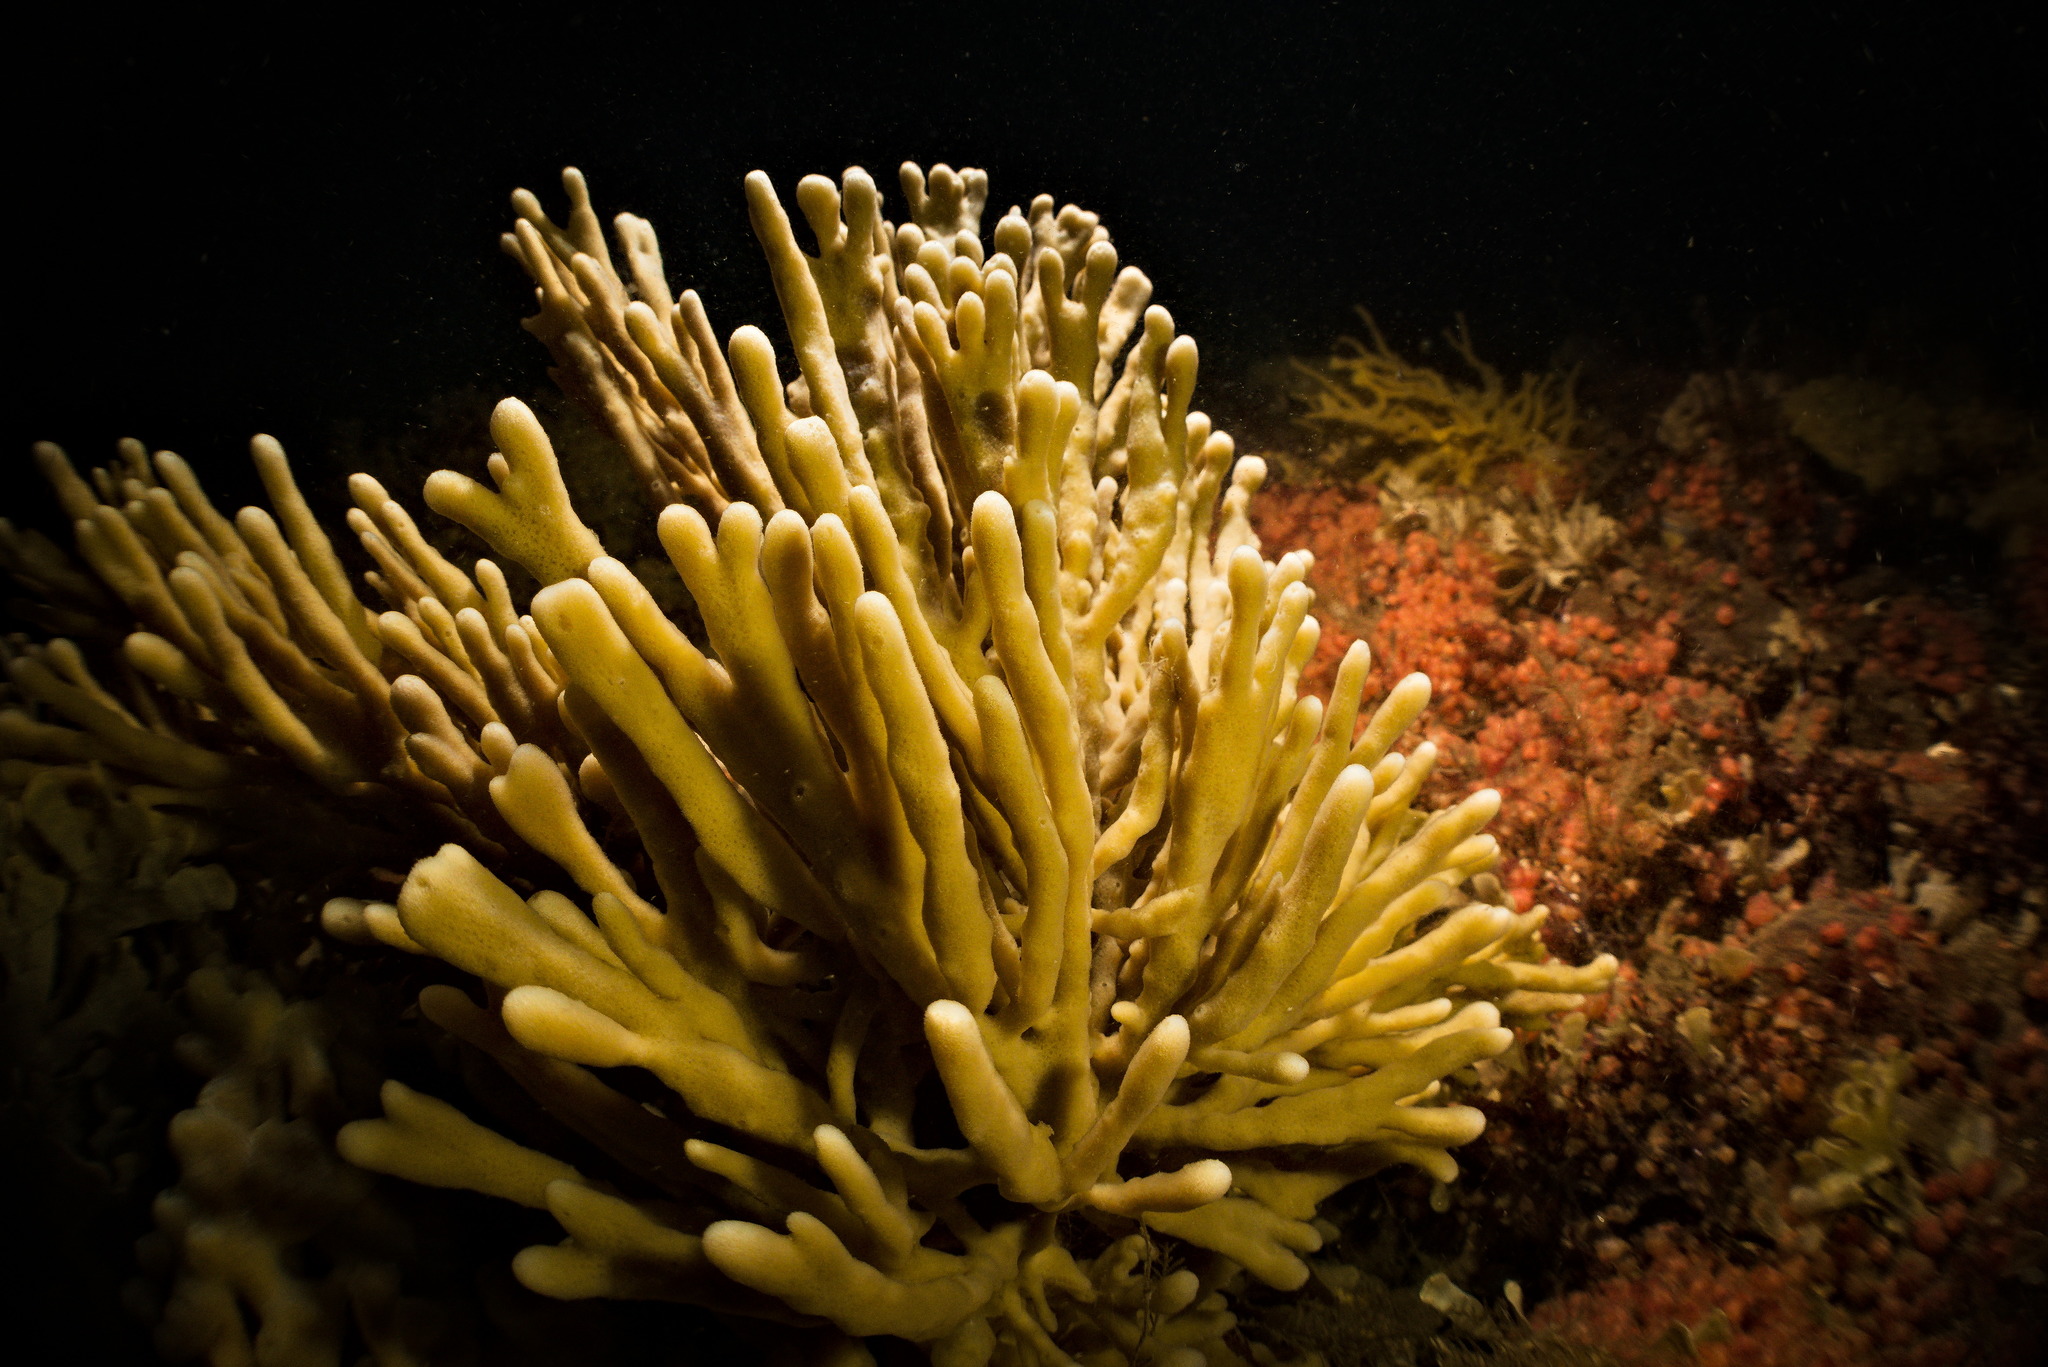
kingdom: Animalia
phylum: Porifera
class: Demospongiae
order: Haplosclerida
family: Chalinidae
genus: Haliclona
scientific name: Haliclona oculata
